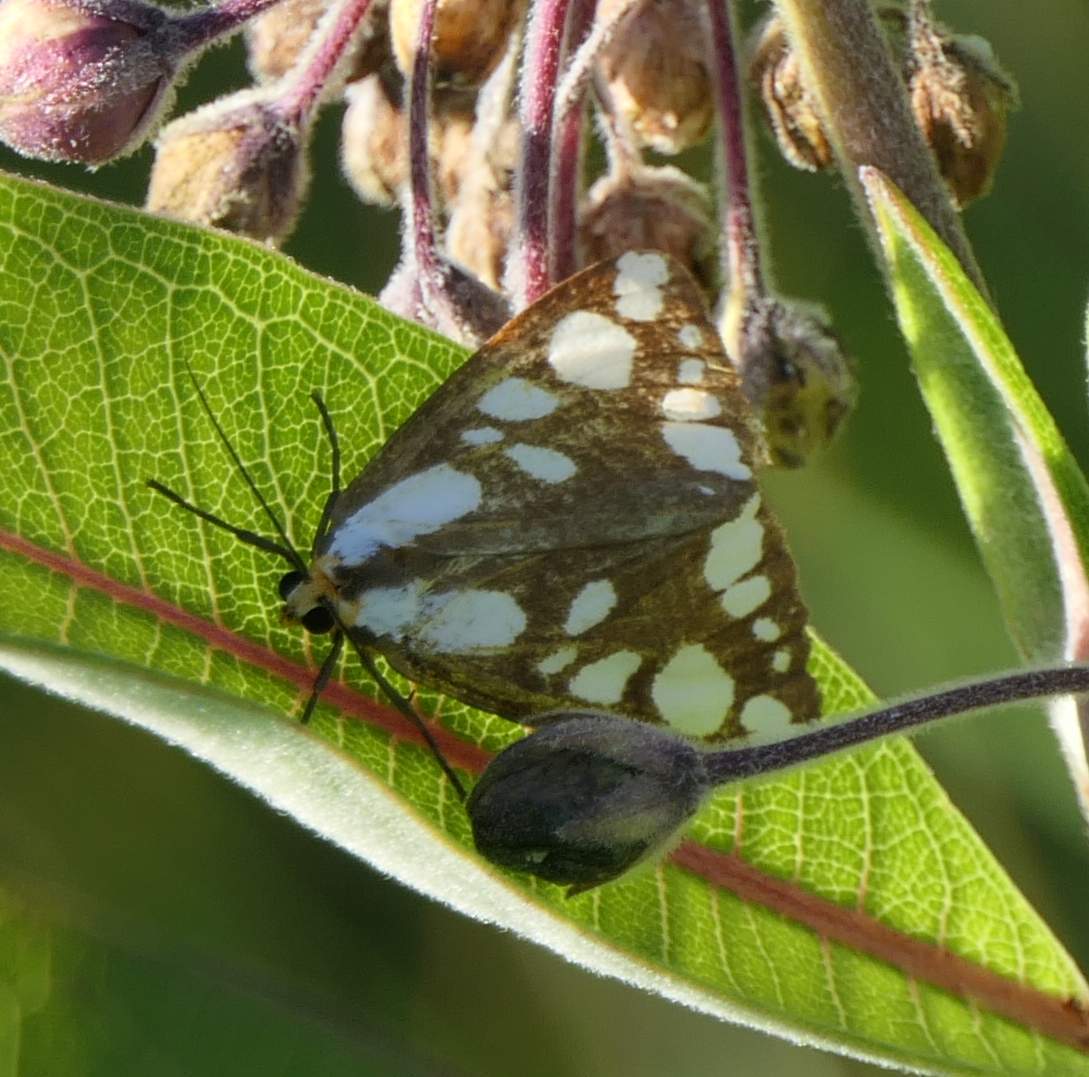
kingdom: Animalia
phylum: Arthropoda
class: Insecta
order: Lepidoptera
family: Erebidae
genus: Haploa
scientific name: Haploa confusa
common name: Confused haploa moth
